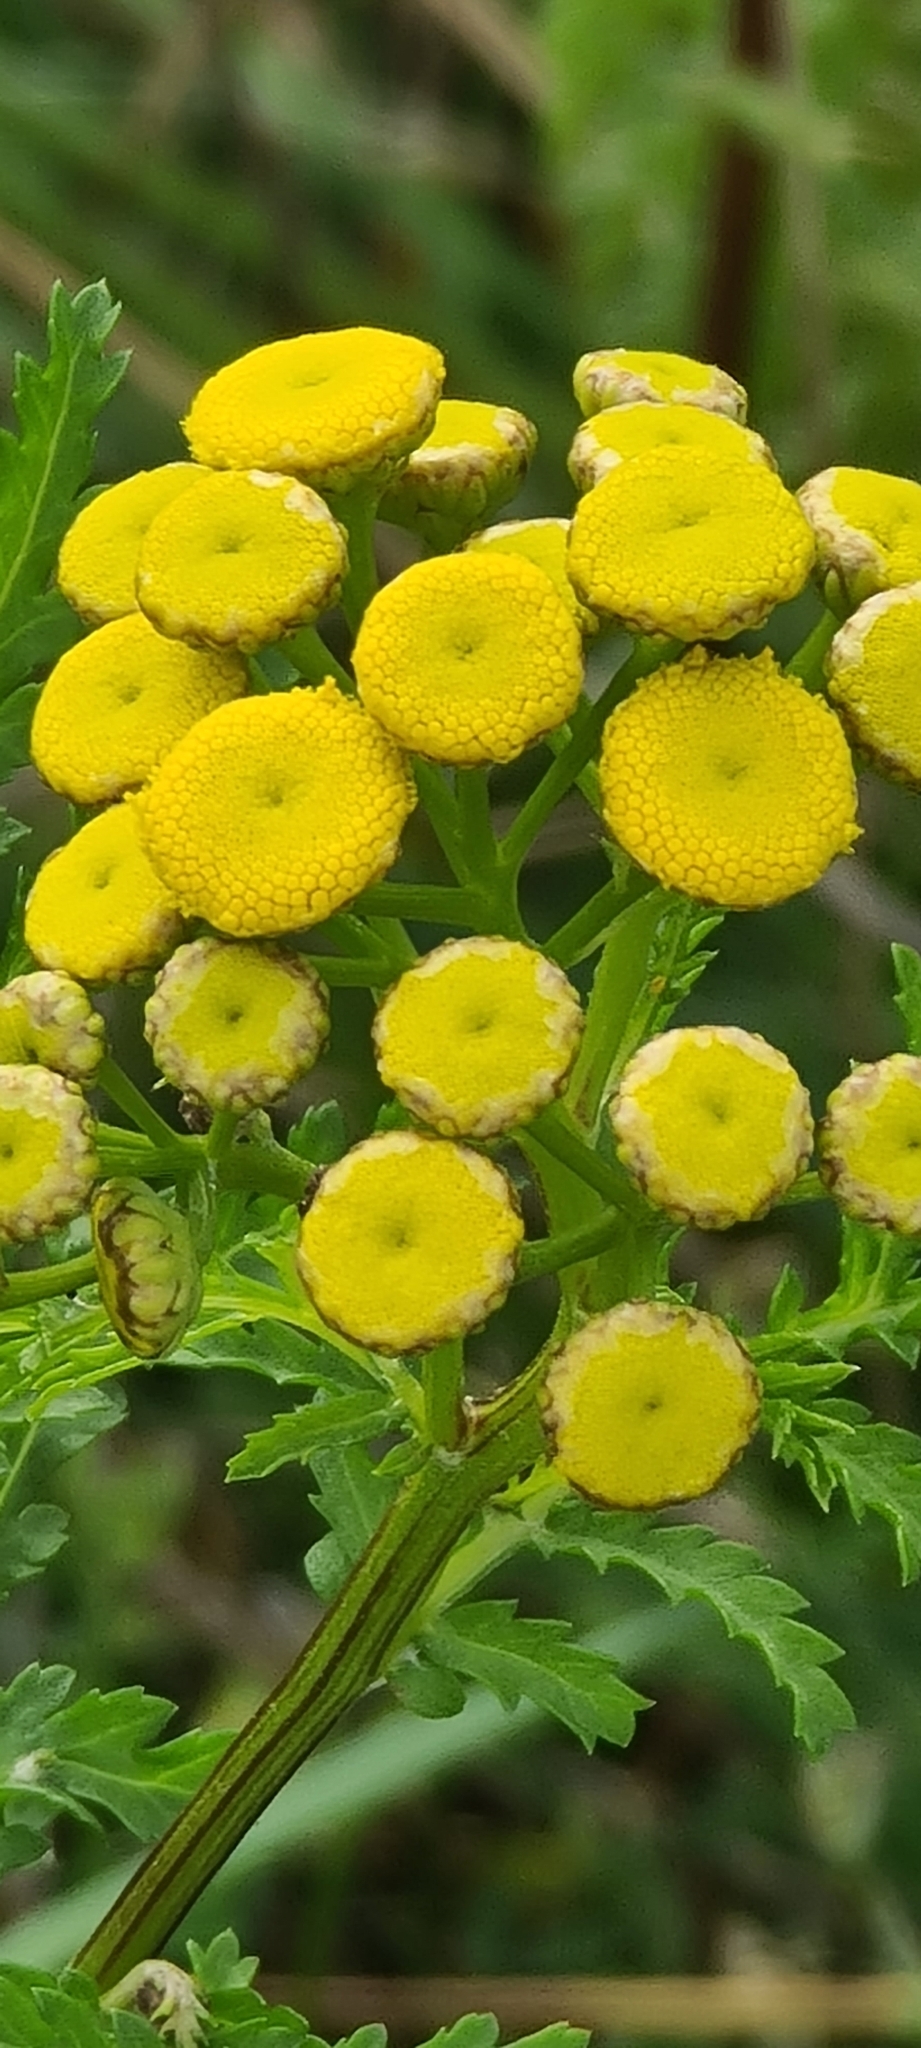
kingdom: Plantae
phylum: Tracheophyta
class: Magnoliopsida
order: Asterales
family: Asteraceae
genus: Tanacetum
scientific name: Tanacetum vulgare
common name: Common tansy
